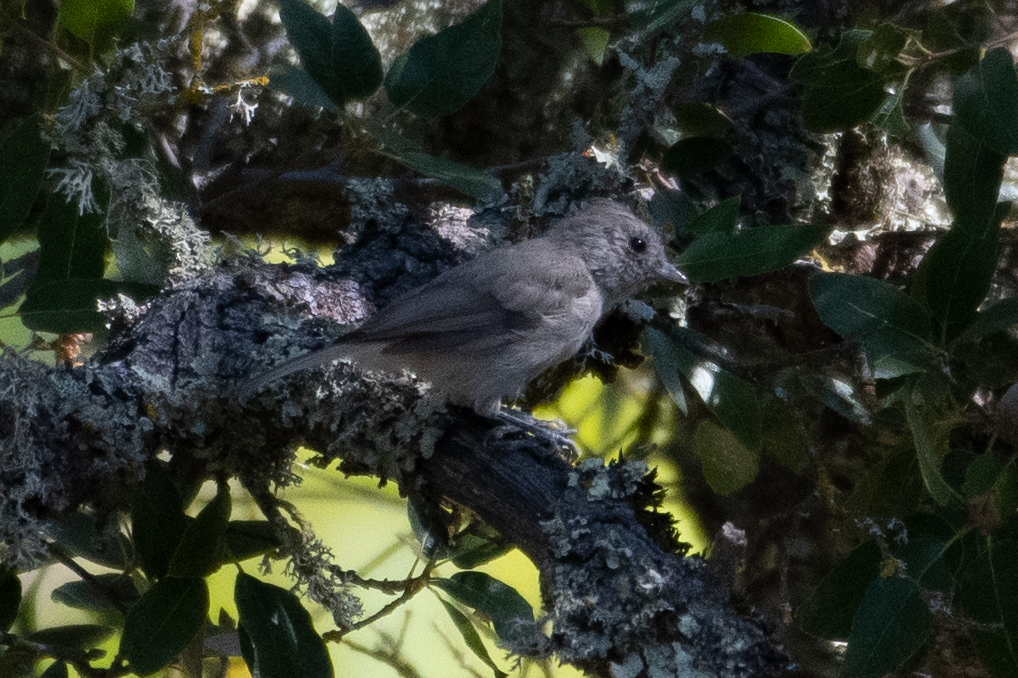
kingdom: Animalia
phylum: Chordata
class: Aves
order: Passeriformes
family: Paridae
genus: Baeolophus
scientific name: Baeolophus inornatus
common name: Oak titmouse
